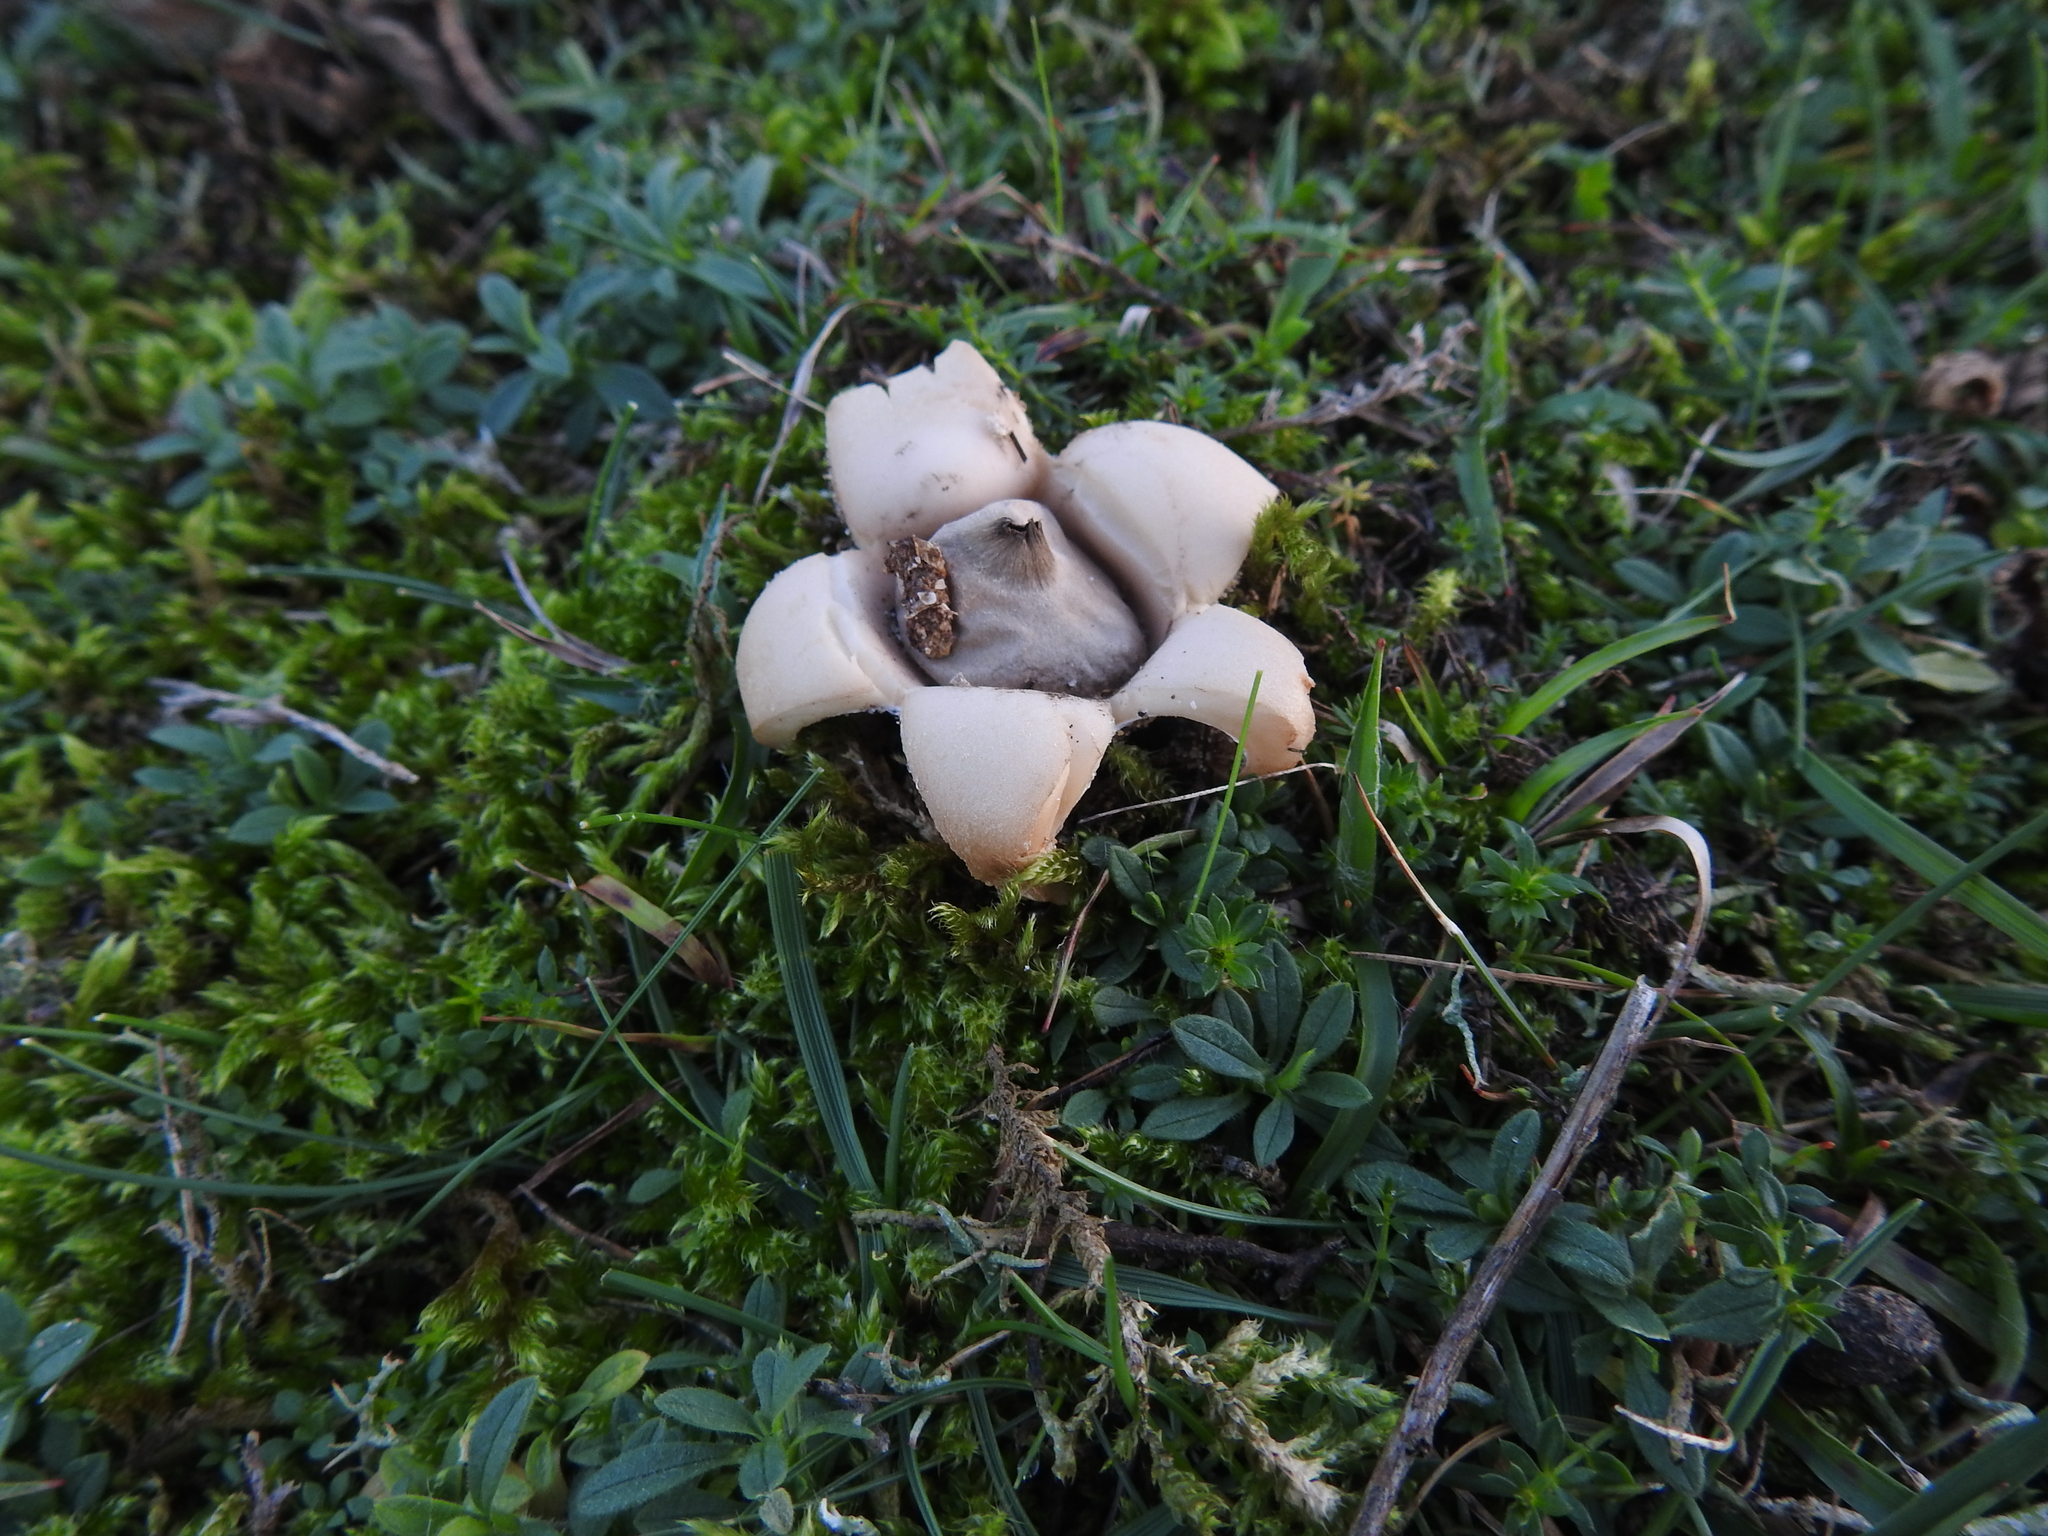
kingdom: Fungi
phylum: Basidiomycota
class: Agaricomycetes
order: Geastrales
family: Geastraceae
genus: Geastrum
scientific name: Geastrum saccatum
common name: Rounded earthstar
